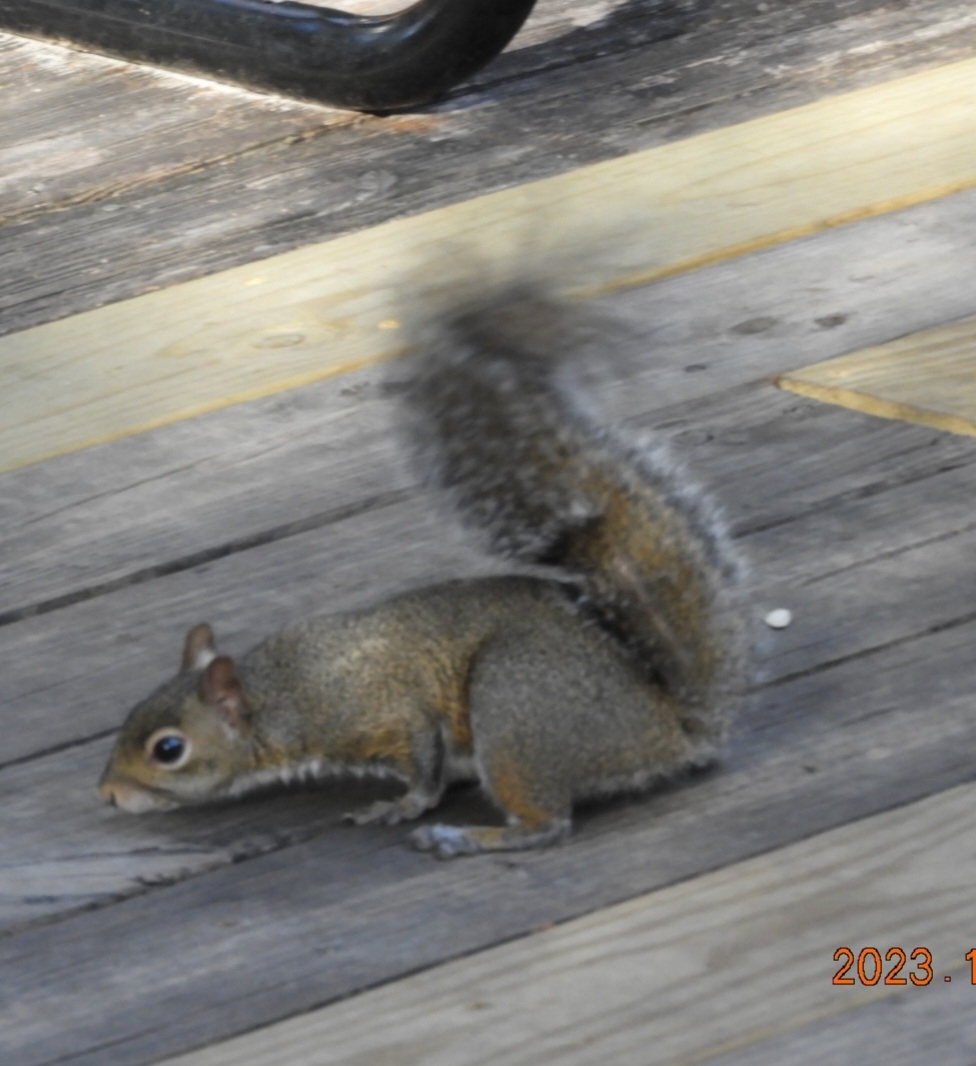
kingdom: Animalia
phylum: Chordata
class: Mammalia
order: Rodentia
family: Sciuridae
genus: Sciurus
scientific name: Sciurus carolinensis
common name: Eastern gray squirrel
